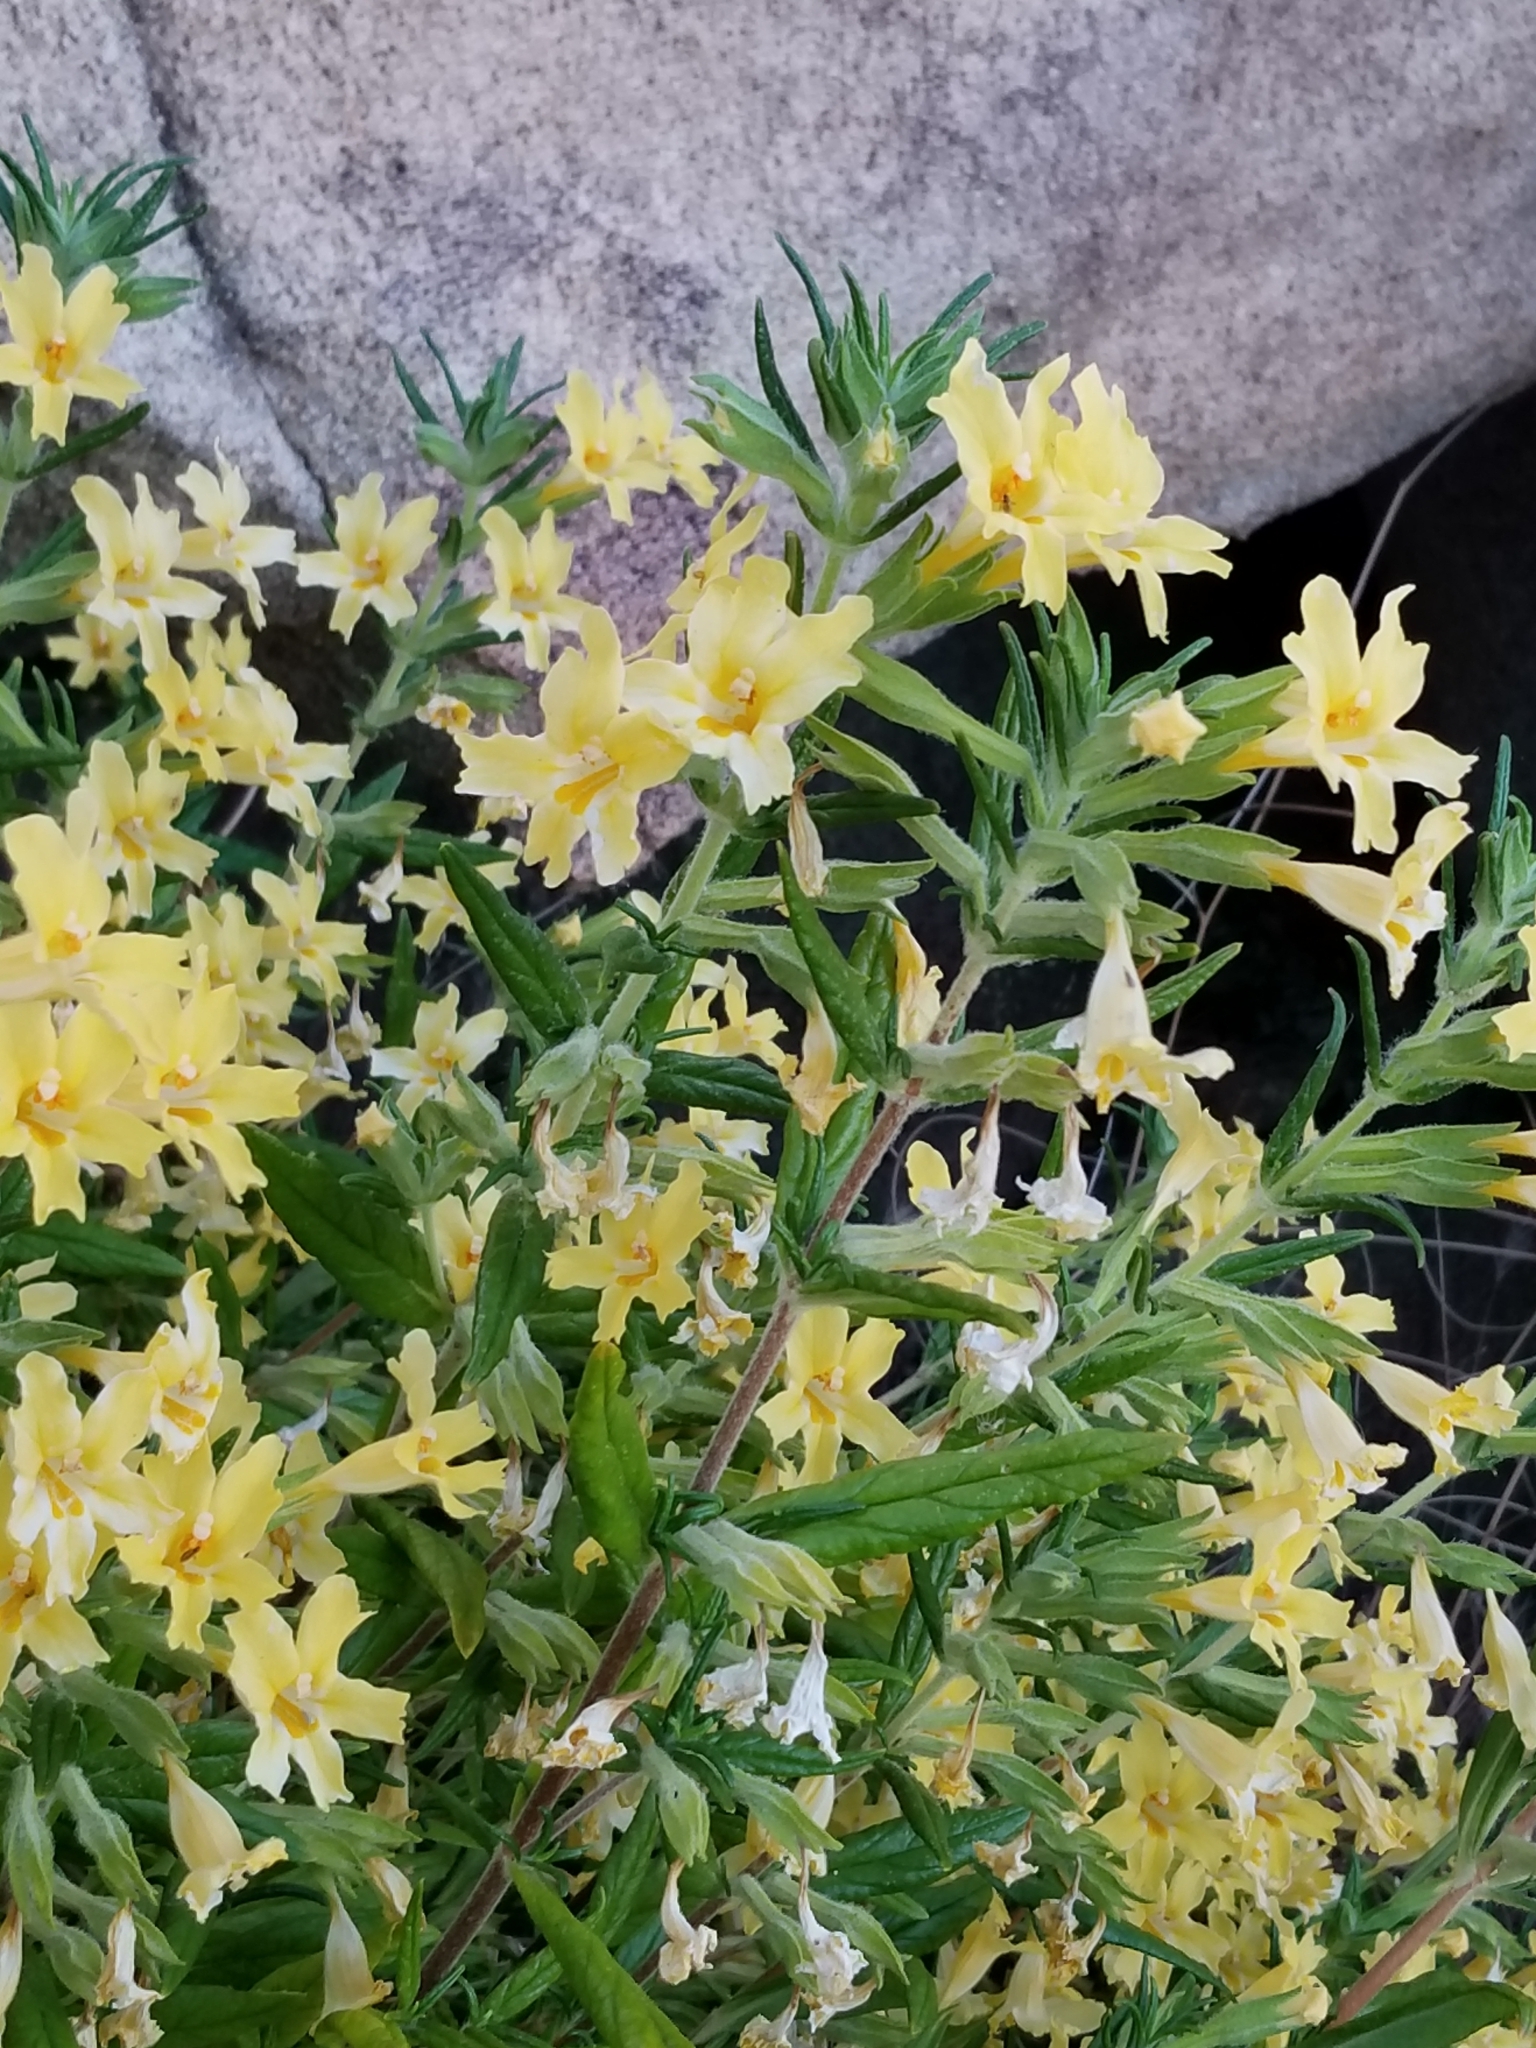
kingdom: Plantae
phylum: Tracheophyta
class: Magnoliopsida
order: Lamiales
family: Phrymaceae
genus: Diplacus
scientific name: Diplacus calycinus
